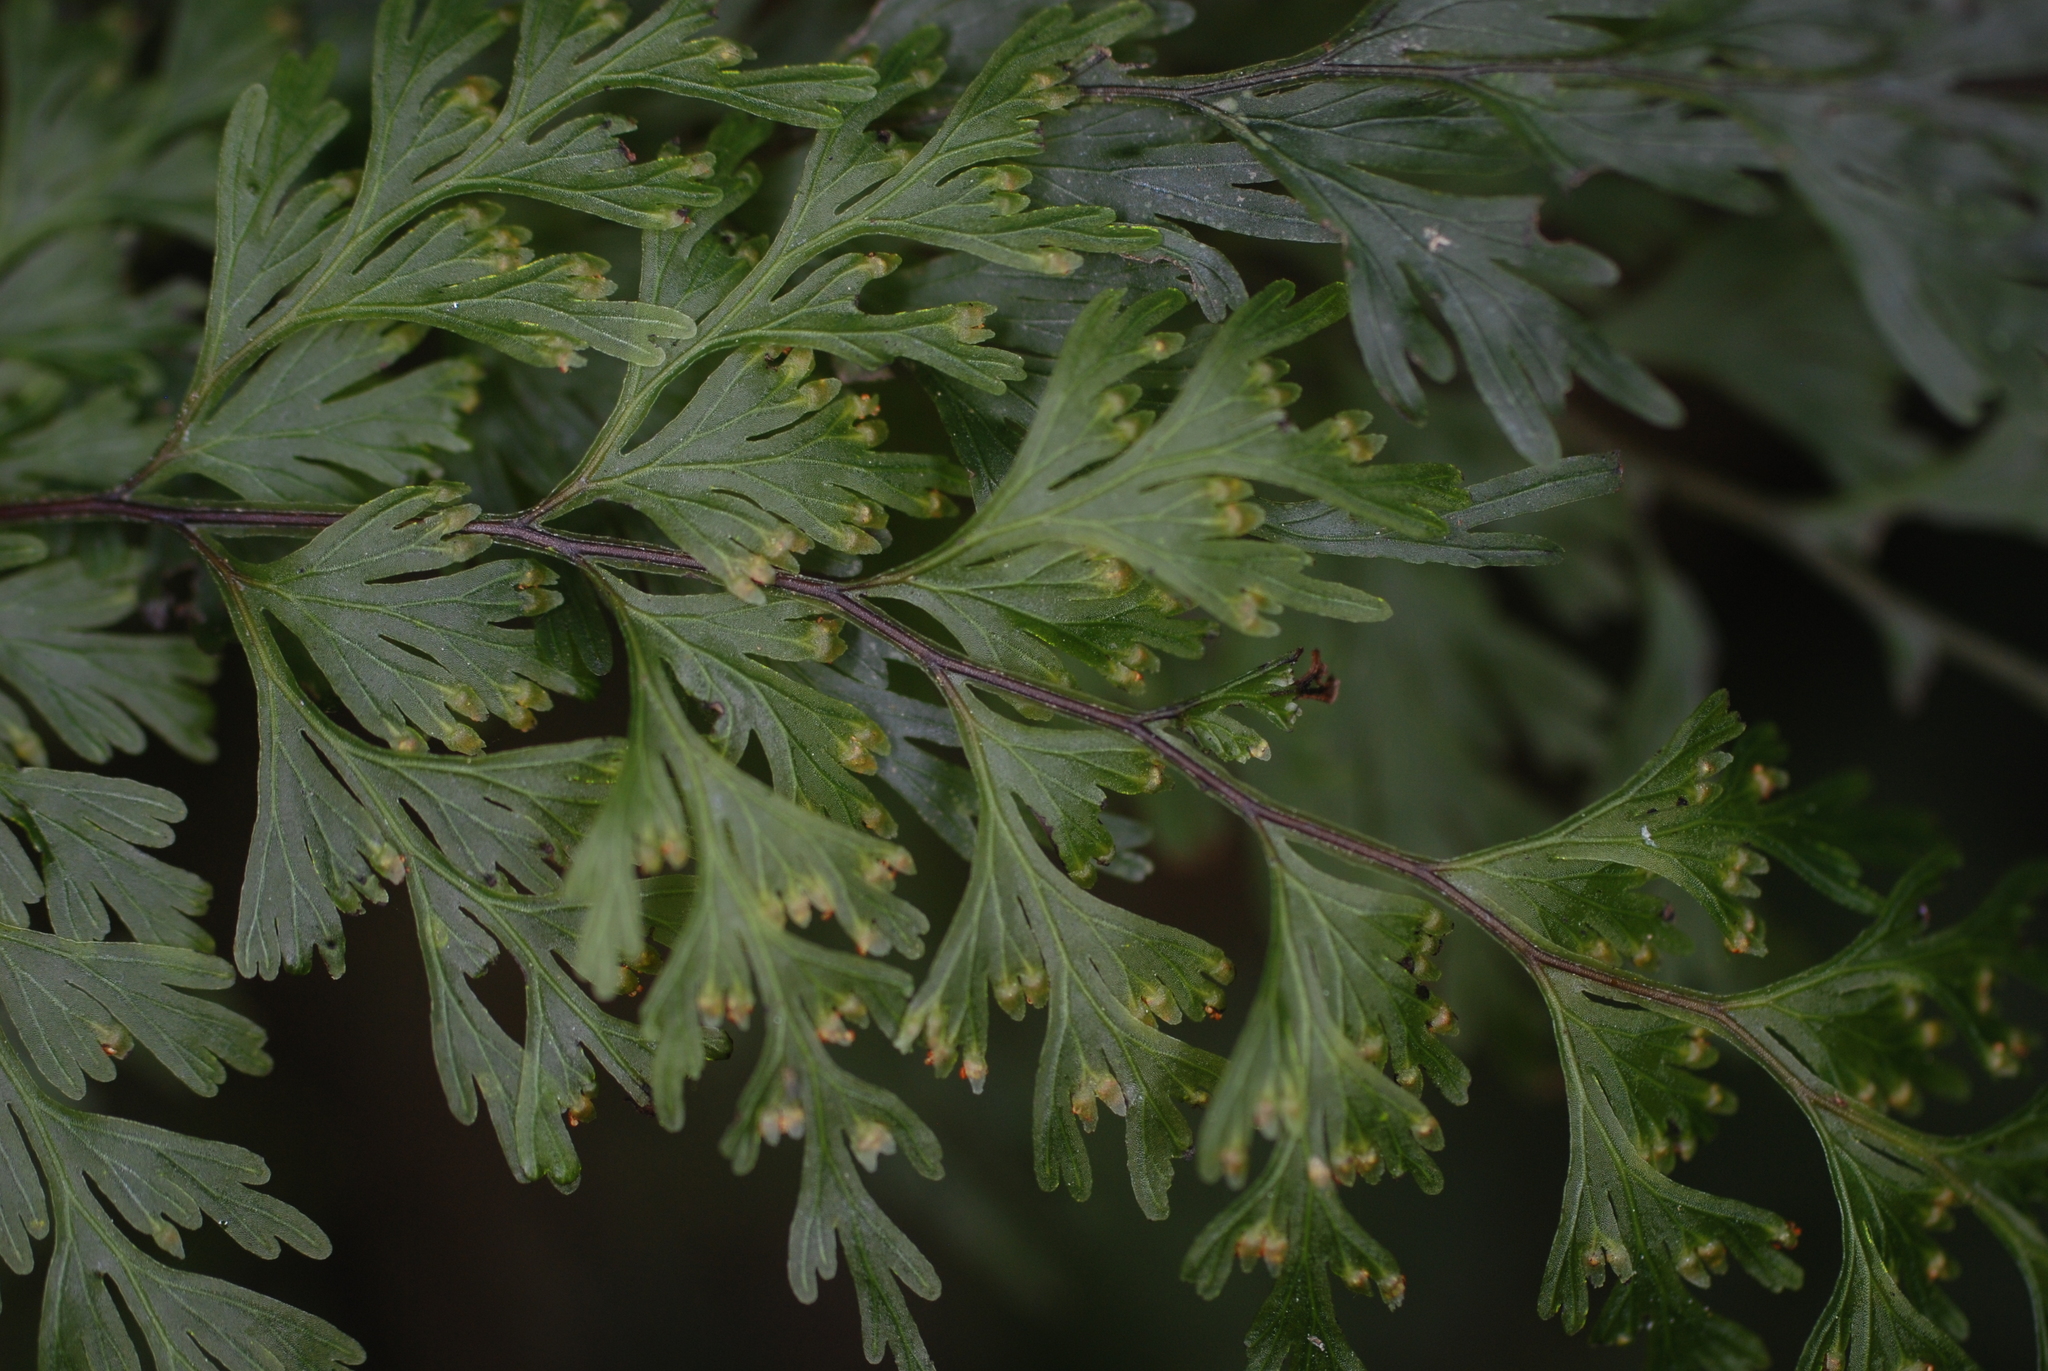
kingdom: Plantae
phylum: Tracheophyta
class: Polypodiopsida
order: Hymenophyllales
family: Hymenophyllaceae
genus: Hymenophyllum
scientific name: Hymenophyllum demissum
